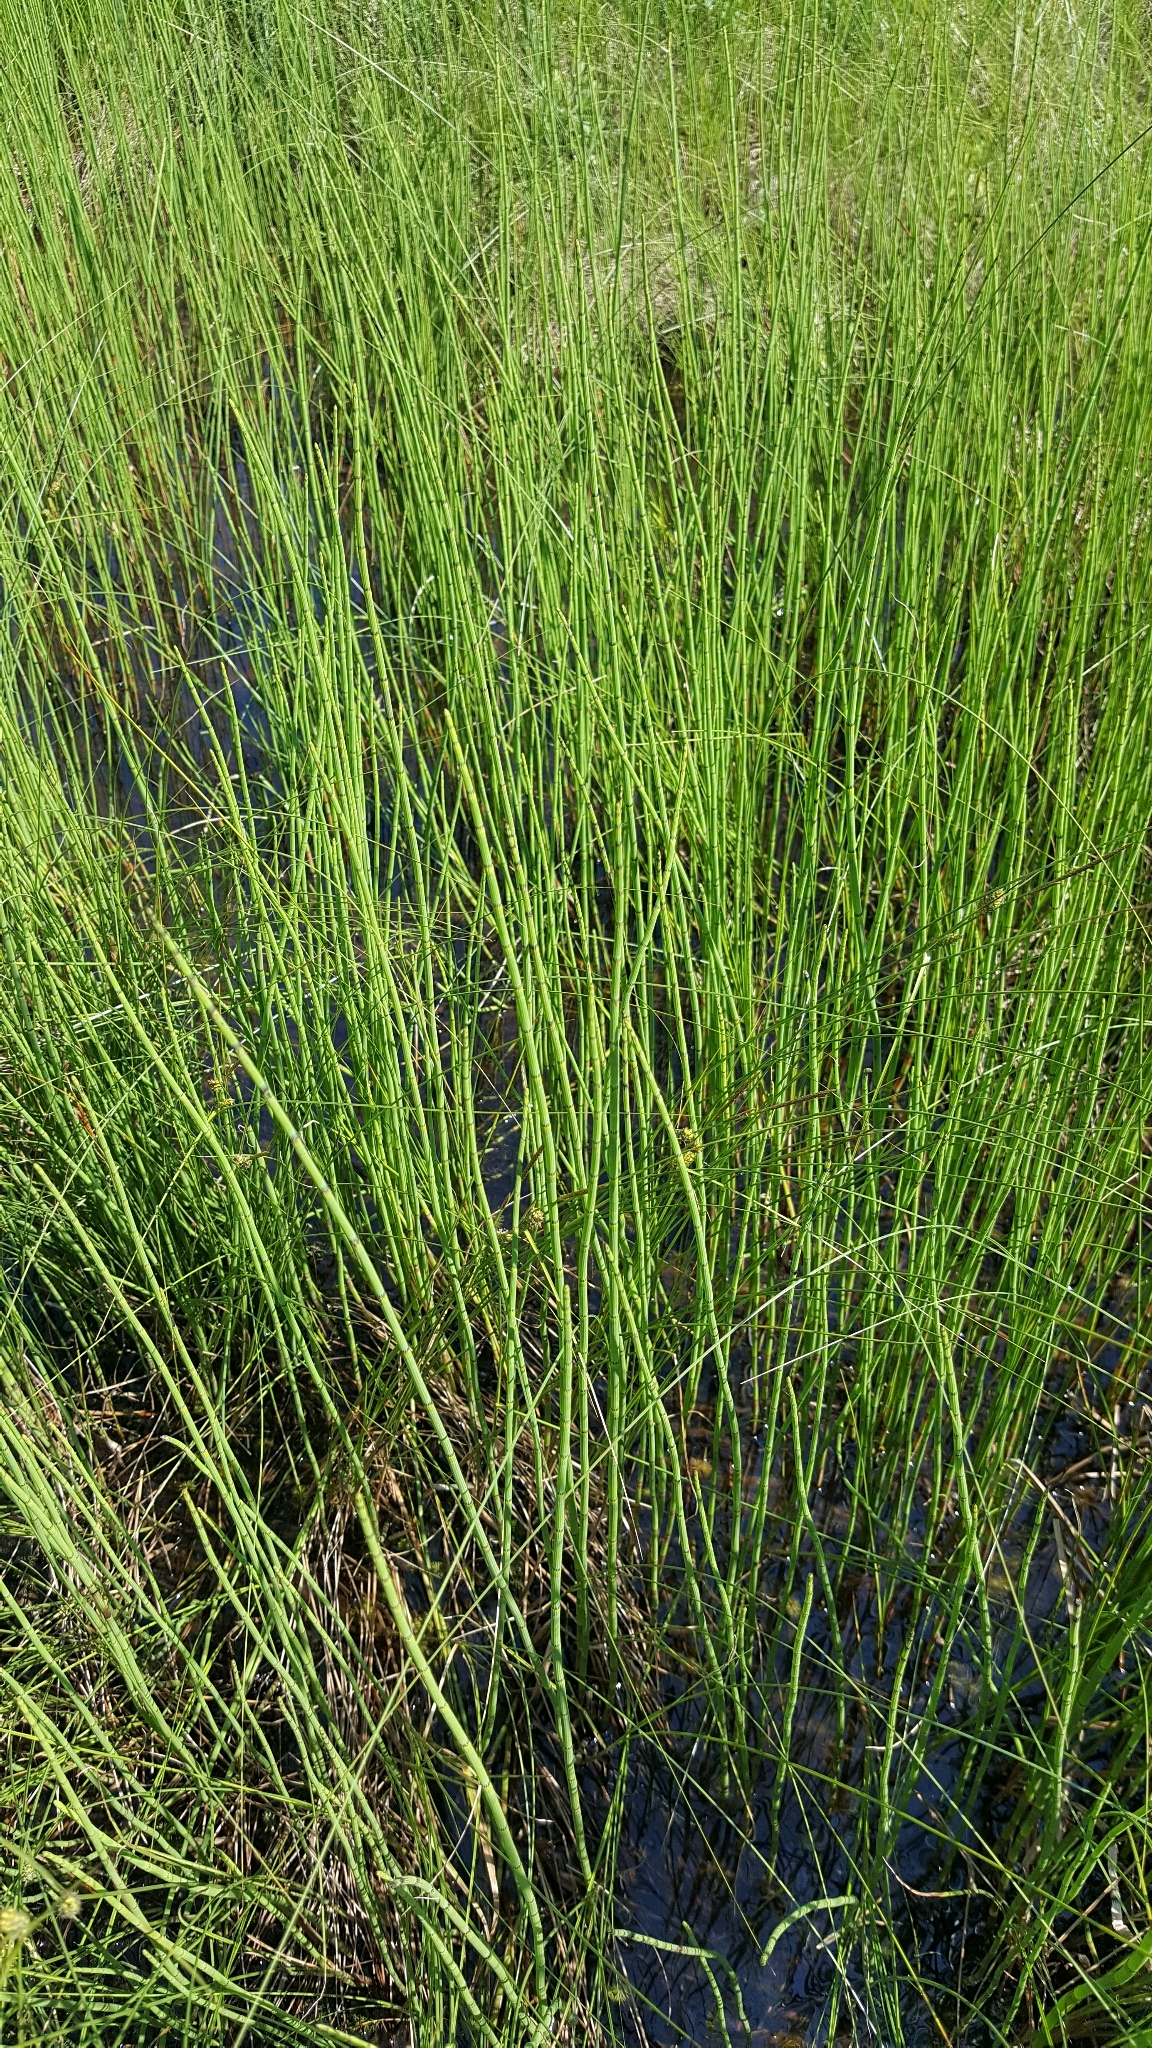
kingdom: Plantae
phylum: Tracheophyta
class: Polypodiopsida
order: Equisetales
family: Equisetaceae
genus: Equisetum
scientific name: Equisetum fluviatile
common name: Water horsetail
